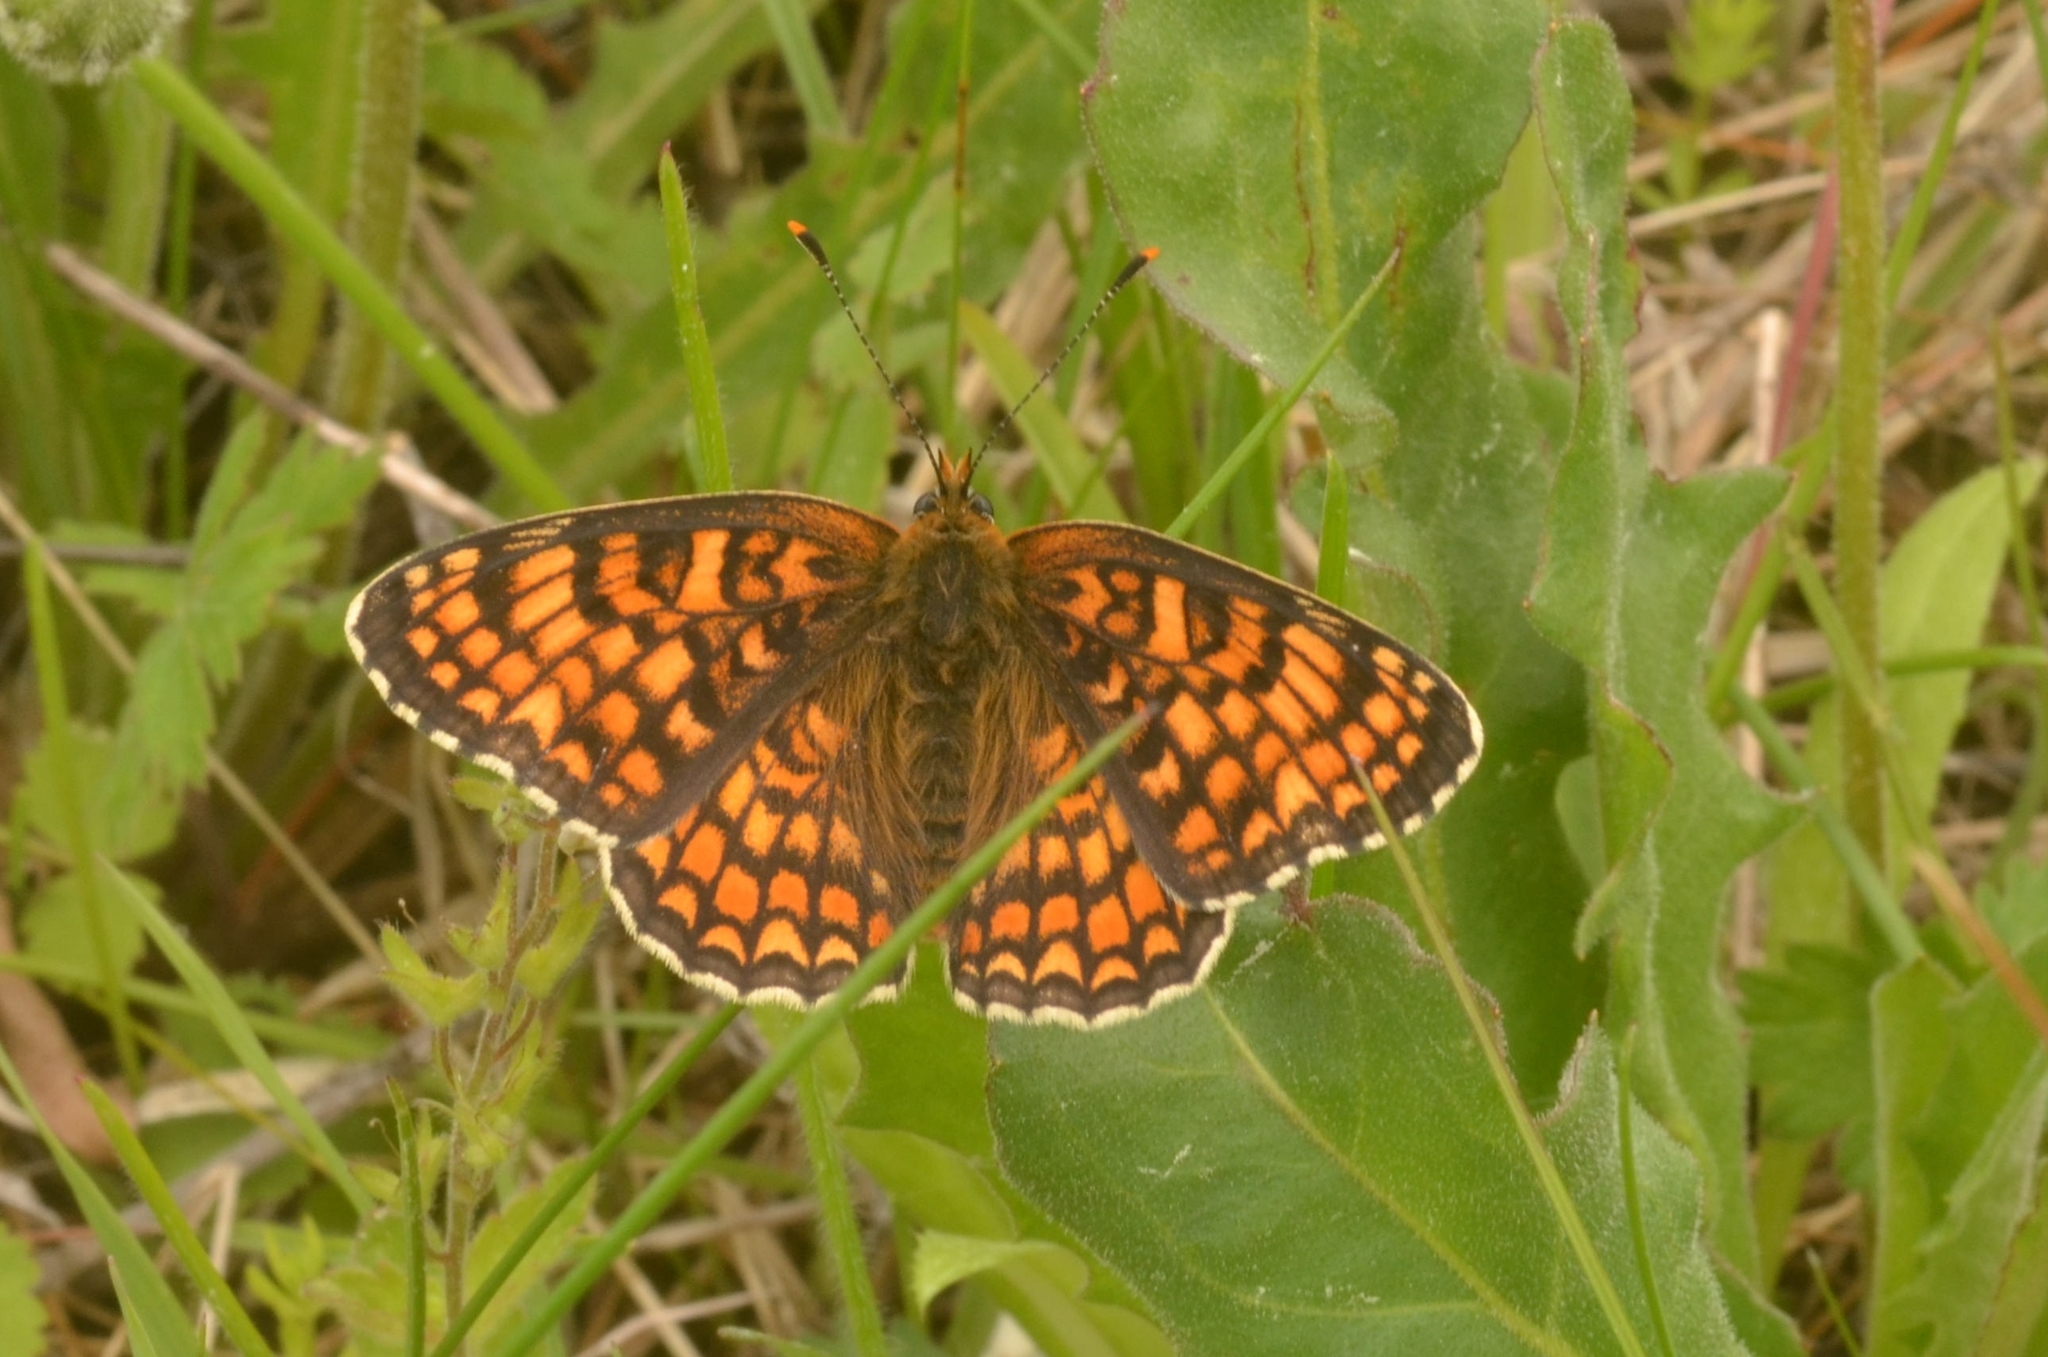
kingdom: Animalia
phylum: Arthropoda
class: Insecta
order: Lepidoptera
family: Nymphalidae
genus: Melitaea
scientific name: Melitaea phoebe
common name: Knapweed fritillary
